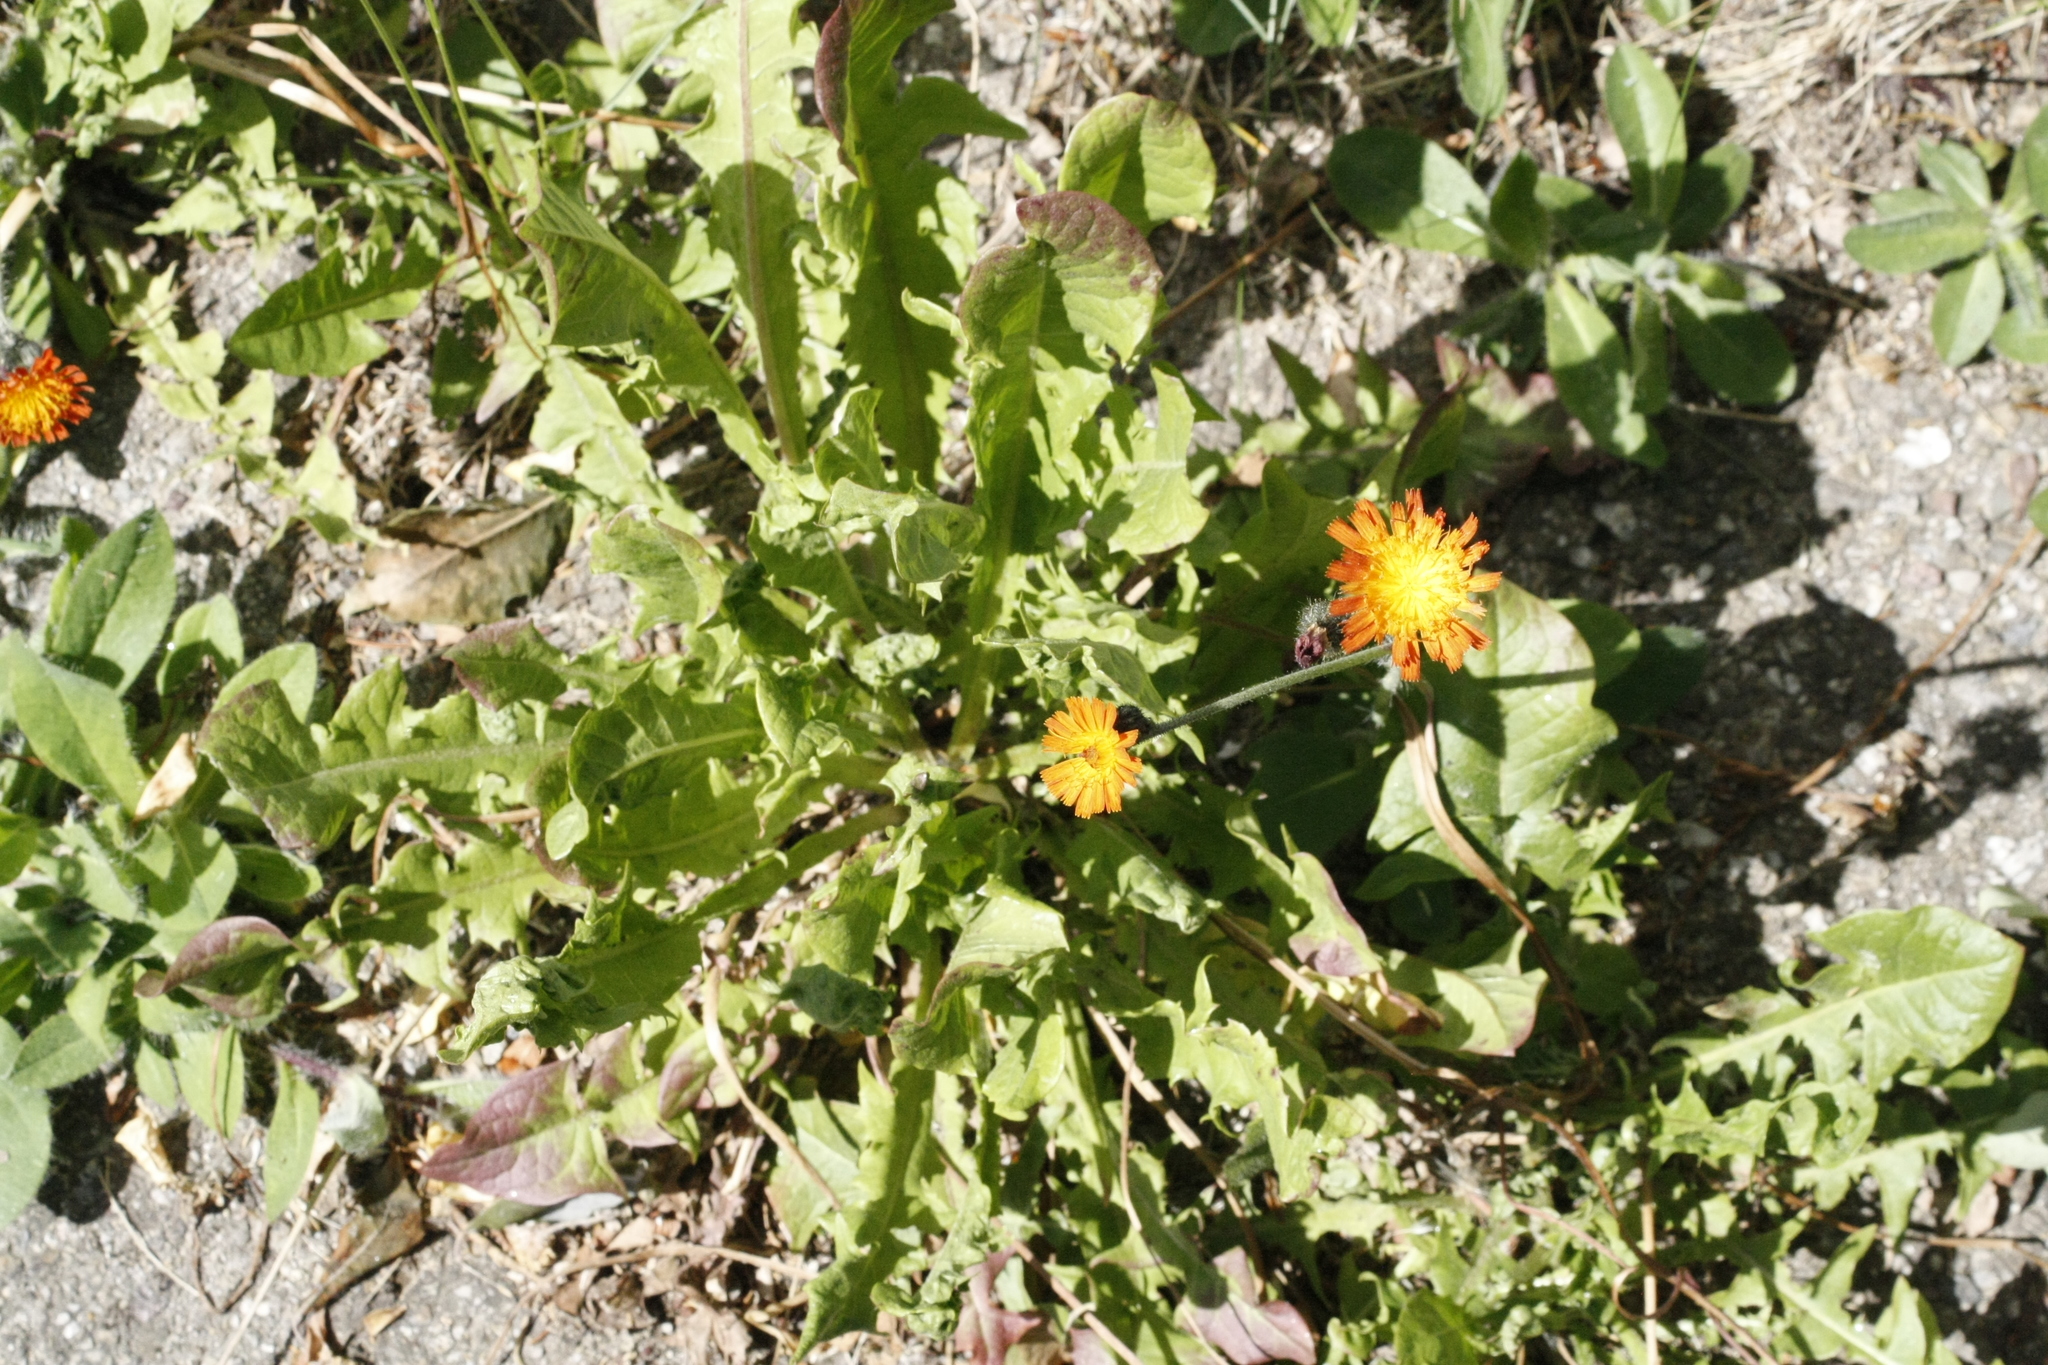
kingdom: Plantae
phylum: Tracheophyta
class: Magnoliopsida
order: Asterales
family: Asteraceae
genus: Pilosella
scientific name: Pilosella aurantiaca
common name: Fox-and-cubs
